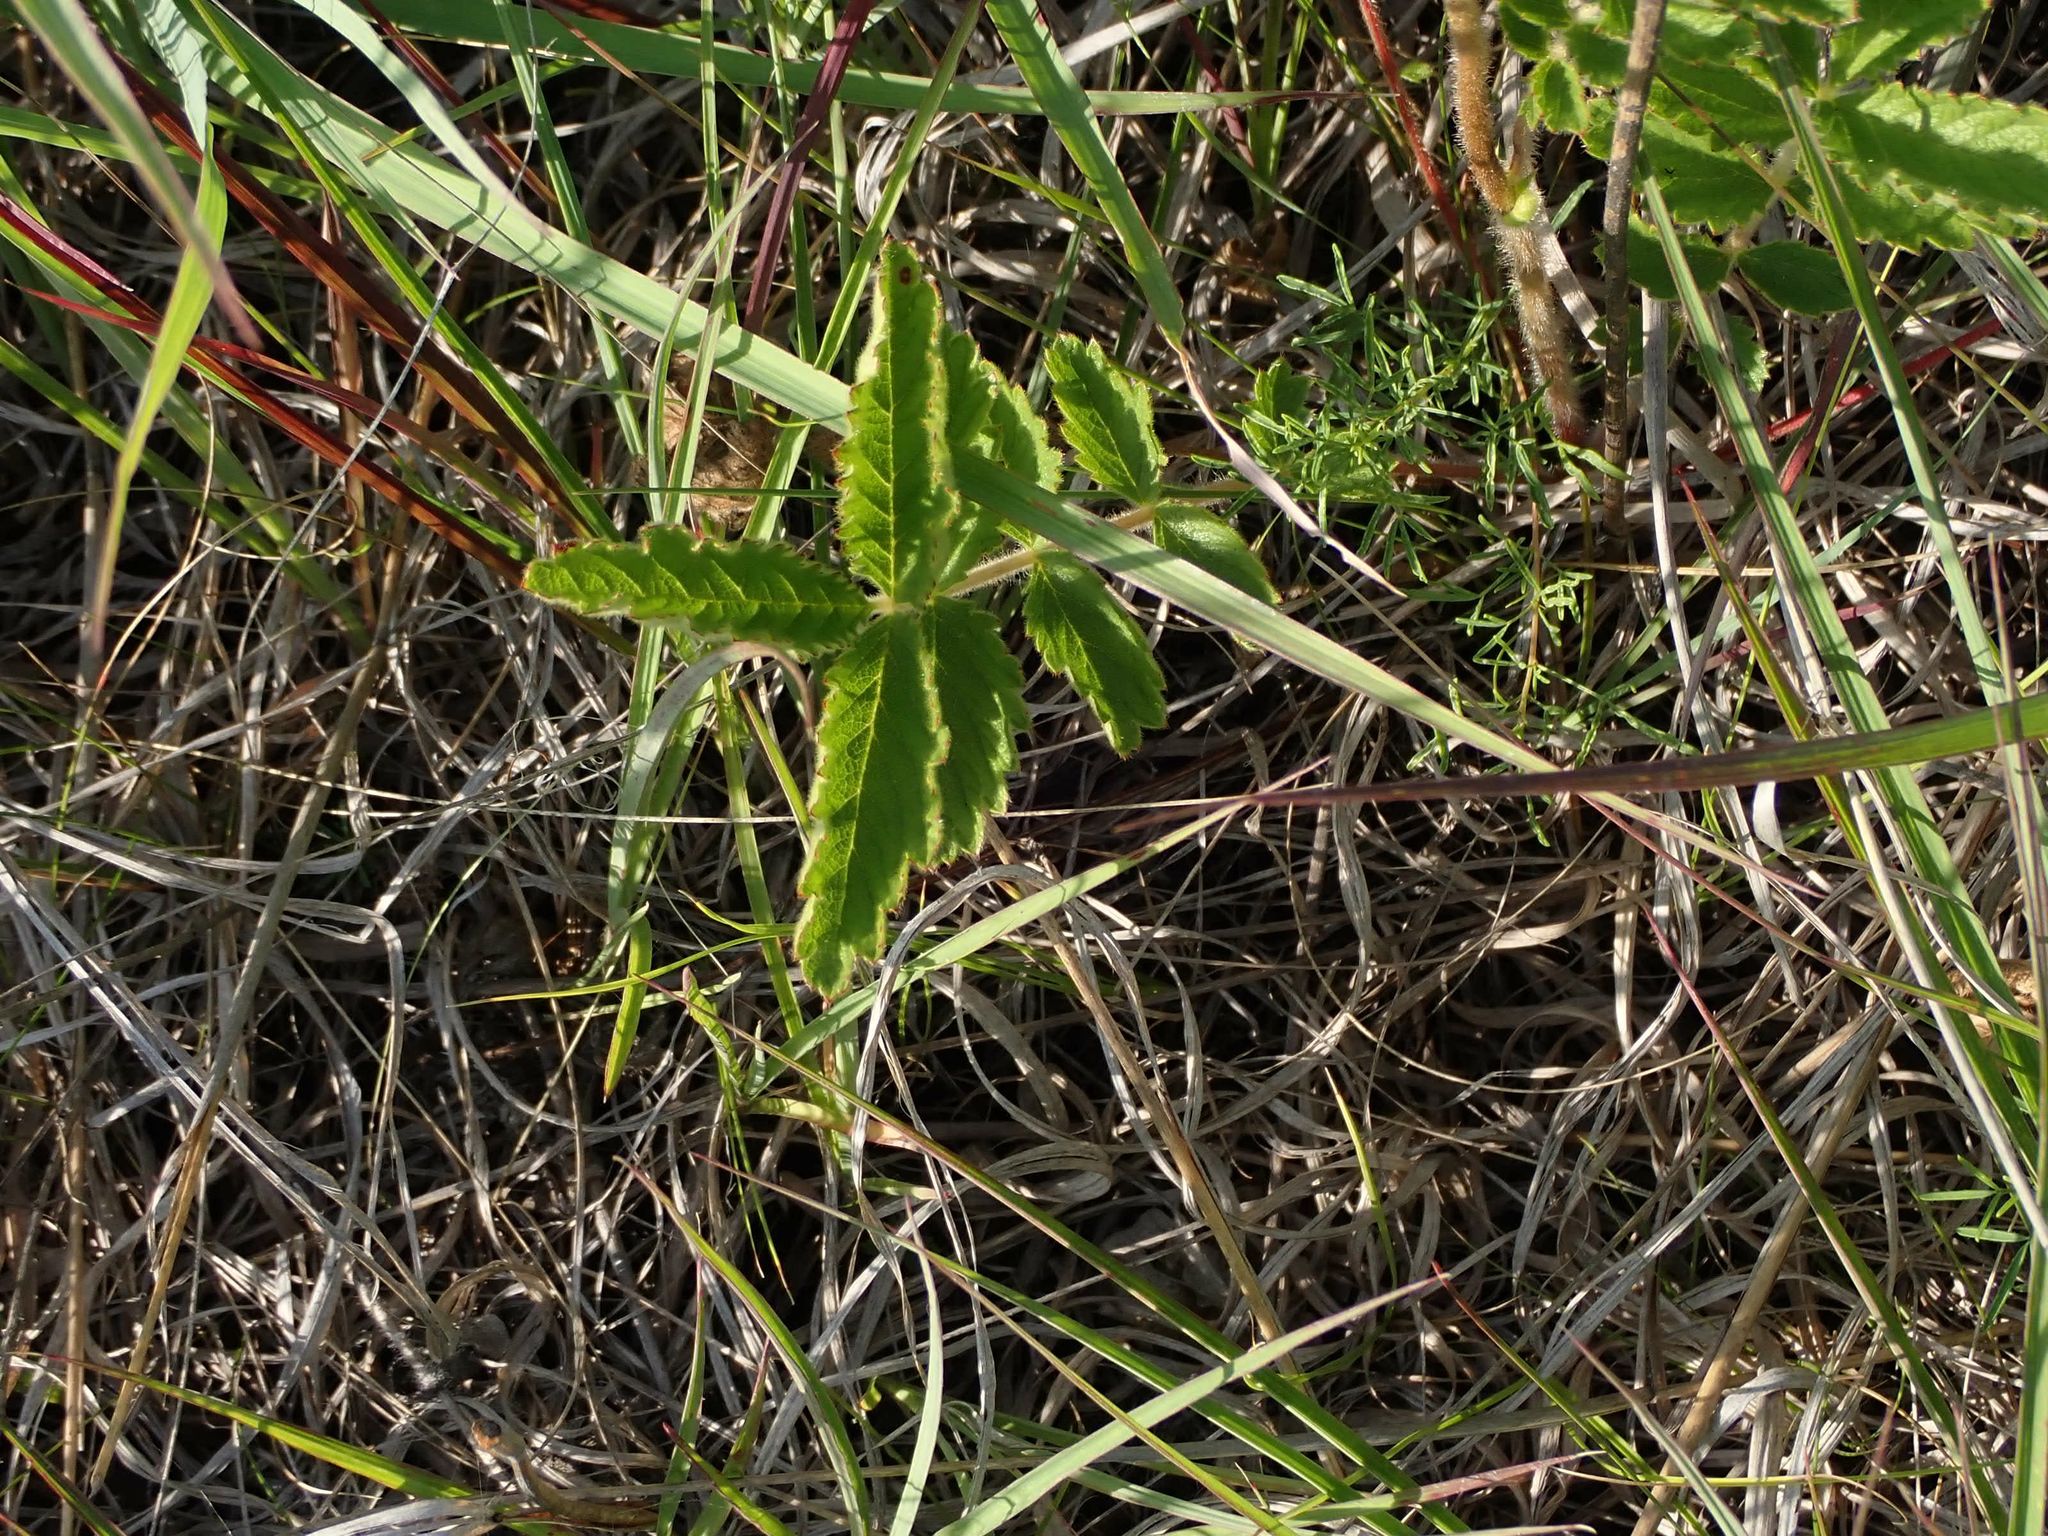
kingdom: Plantae
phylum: Tracheophyta
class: Magnoliopsida
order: Rosales
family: Rosaceae
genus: Drymocallis
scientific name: Drymocallis arguta
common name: Tall cinquefoil
